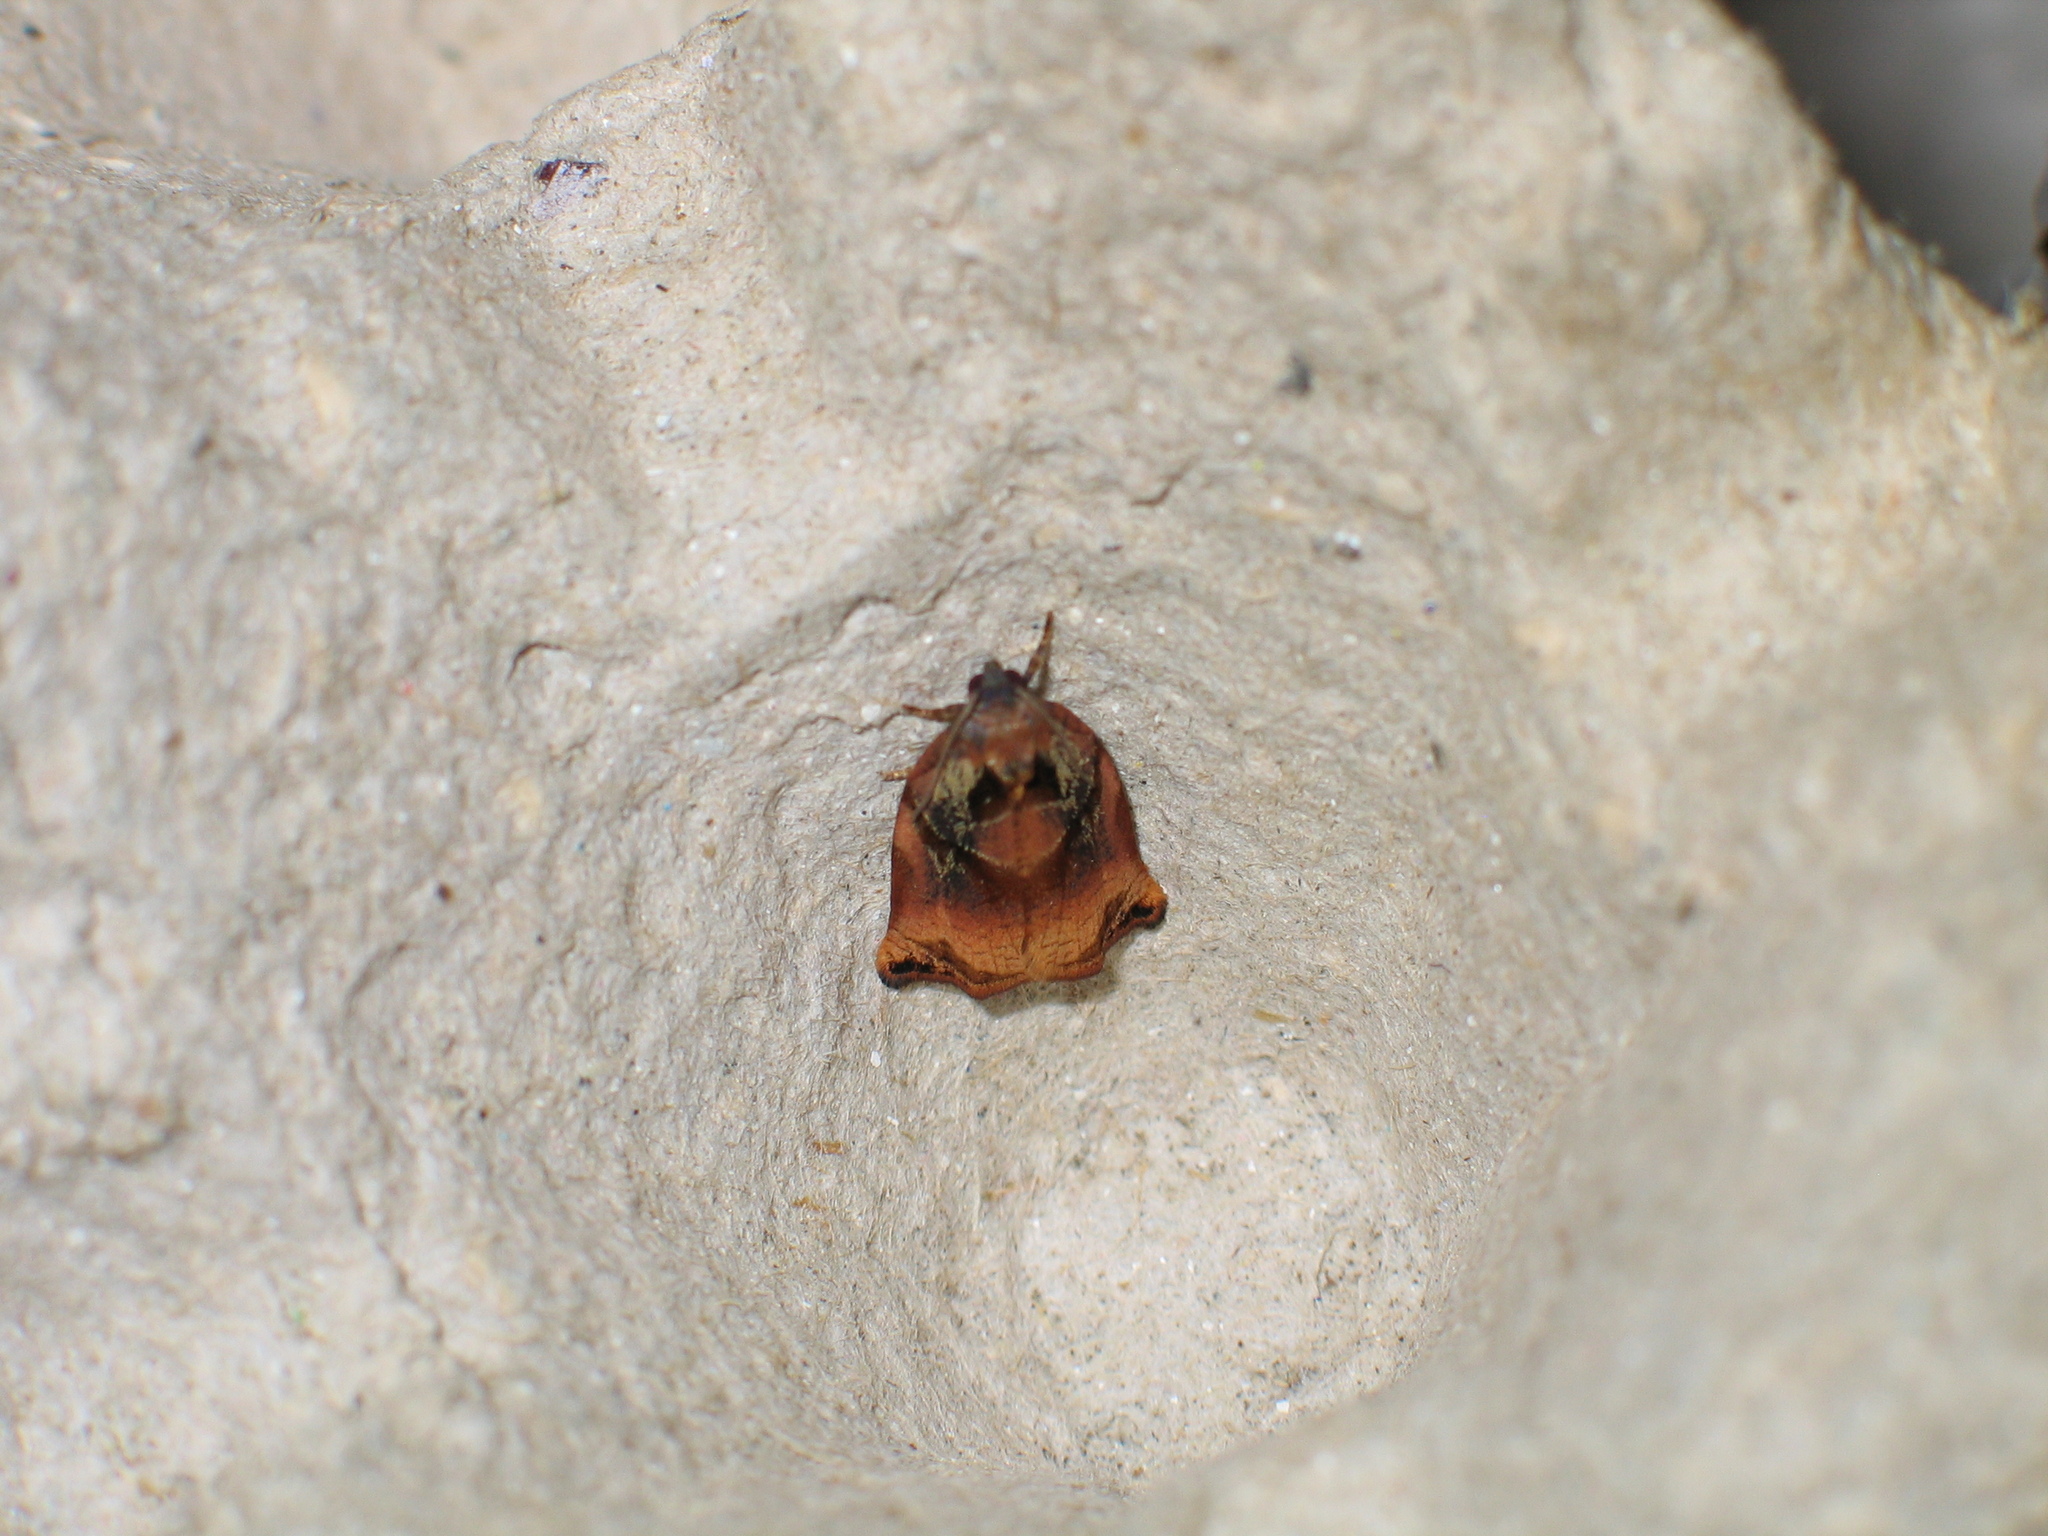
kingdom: Animalia
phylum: Arthropoda
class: Insecta
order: Lepidoptera
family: Tortricidae
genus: Archips
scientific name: Archips podana
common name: Large fruit-tree tortrix
